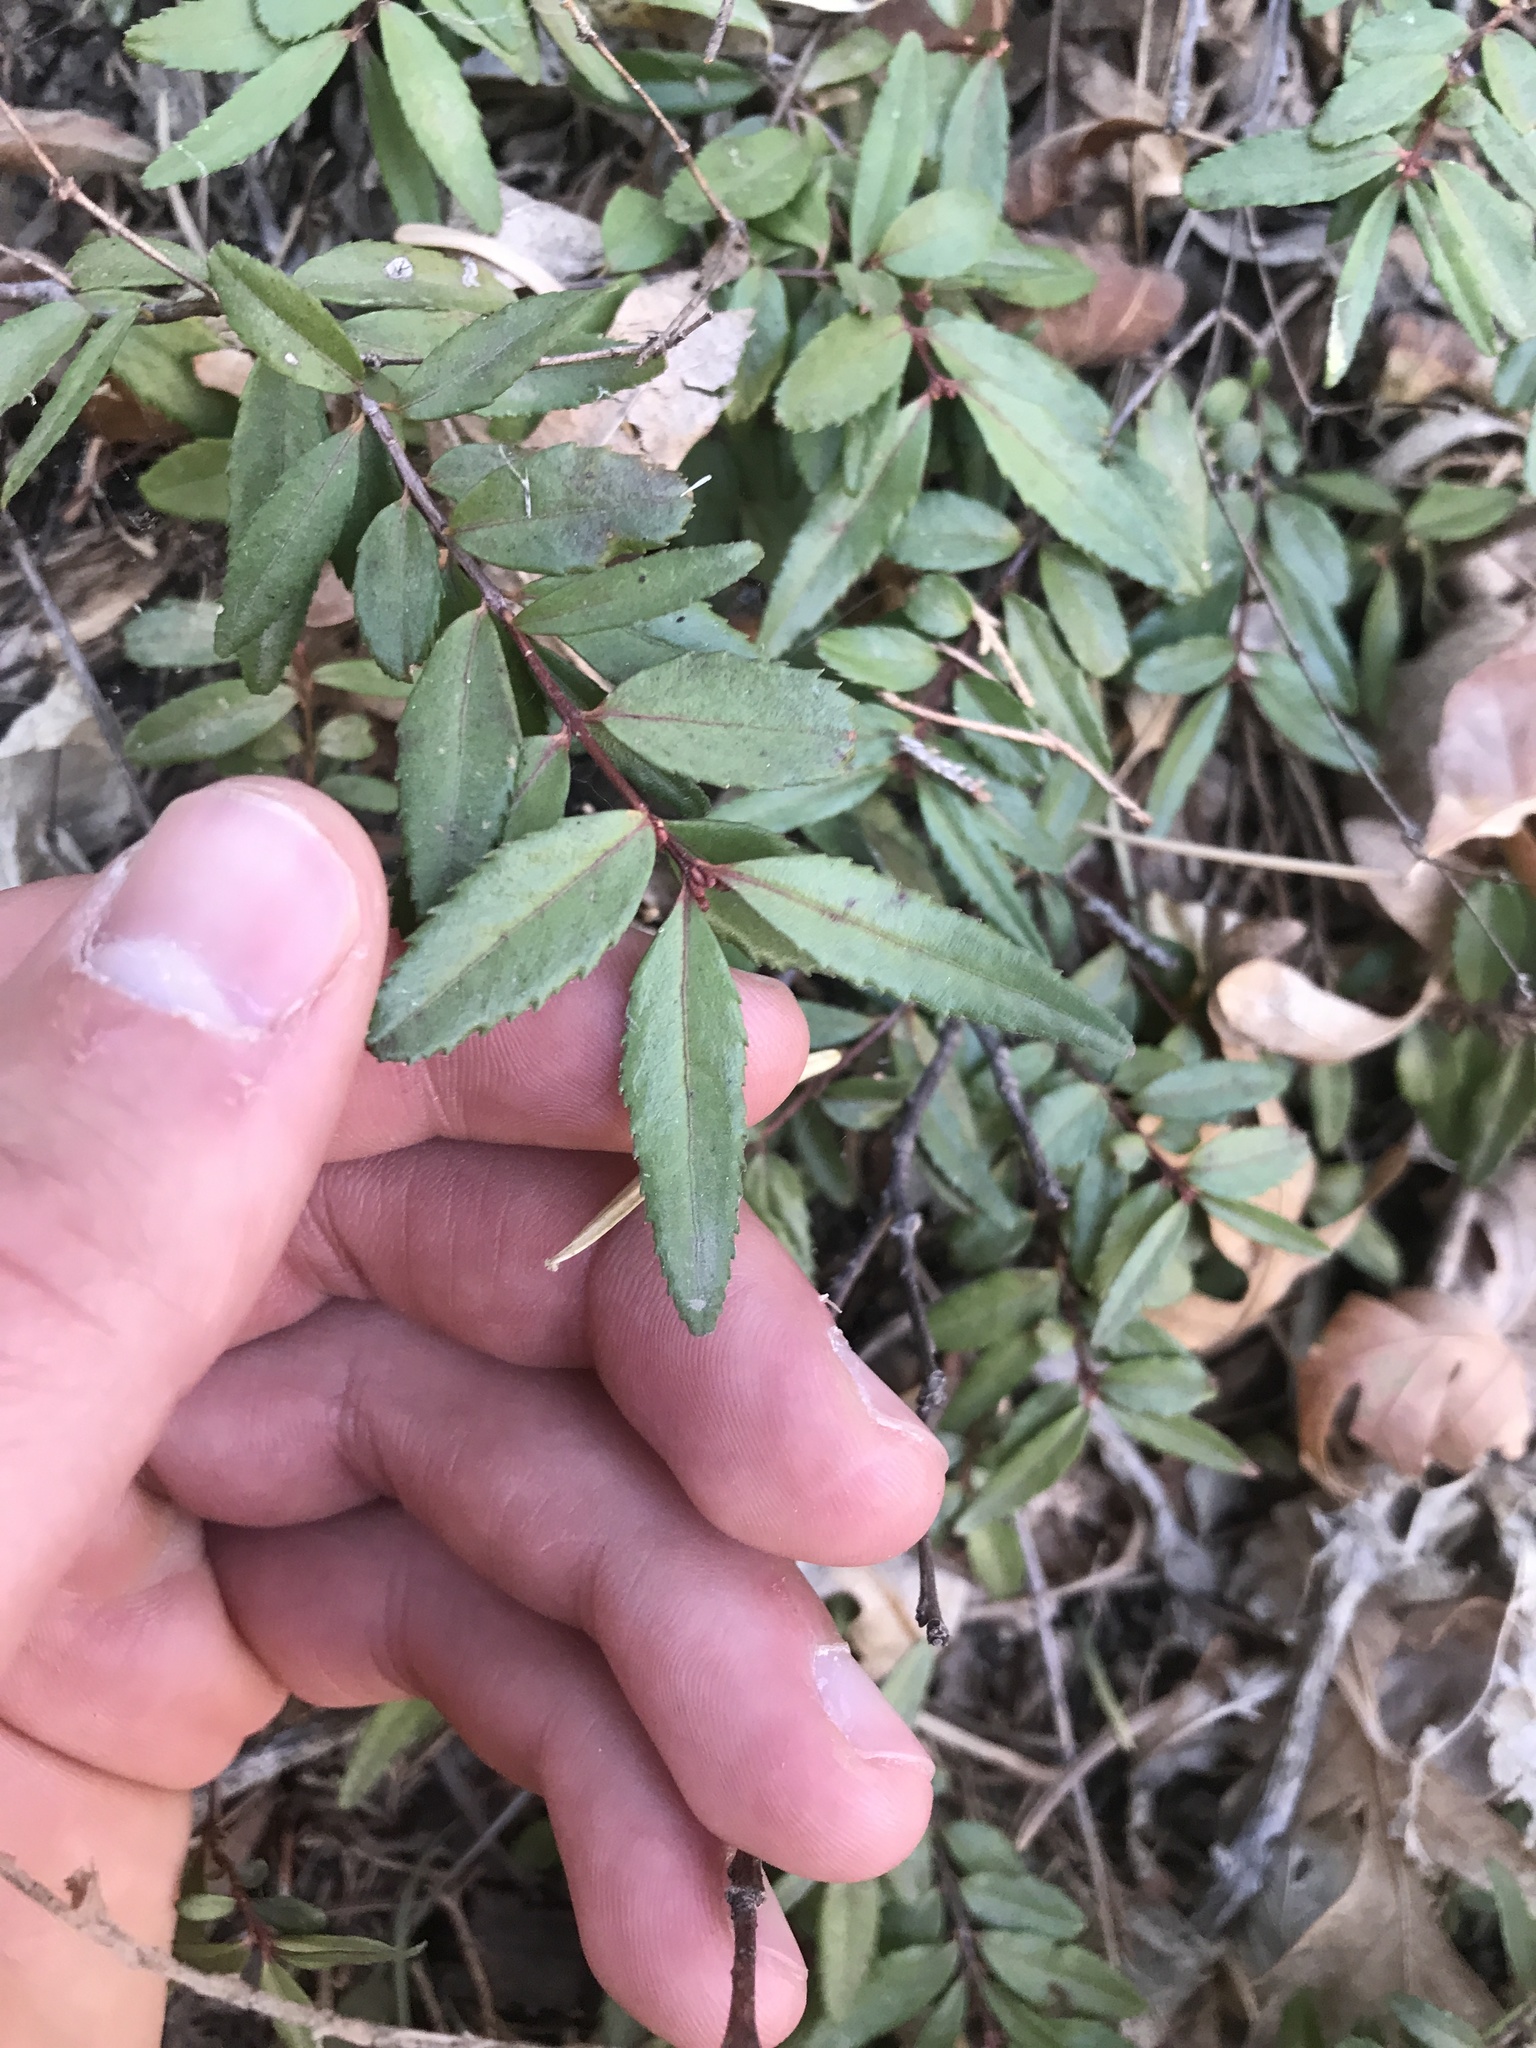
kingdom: Plantae
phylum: Tracheophyta
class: Magnoliopsida
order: Celastrales
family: Celastraceae
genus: Paxistima
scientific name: Paxistima myrsinites
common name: Mountain-lover
